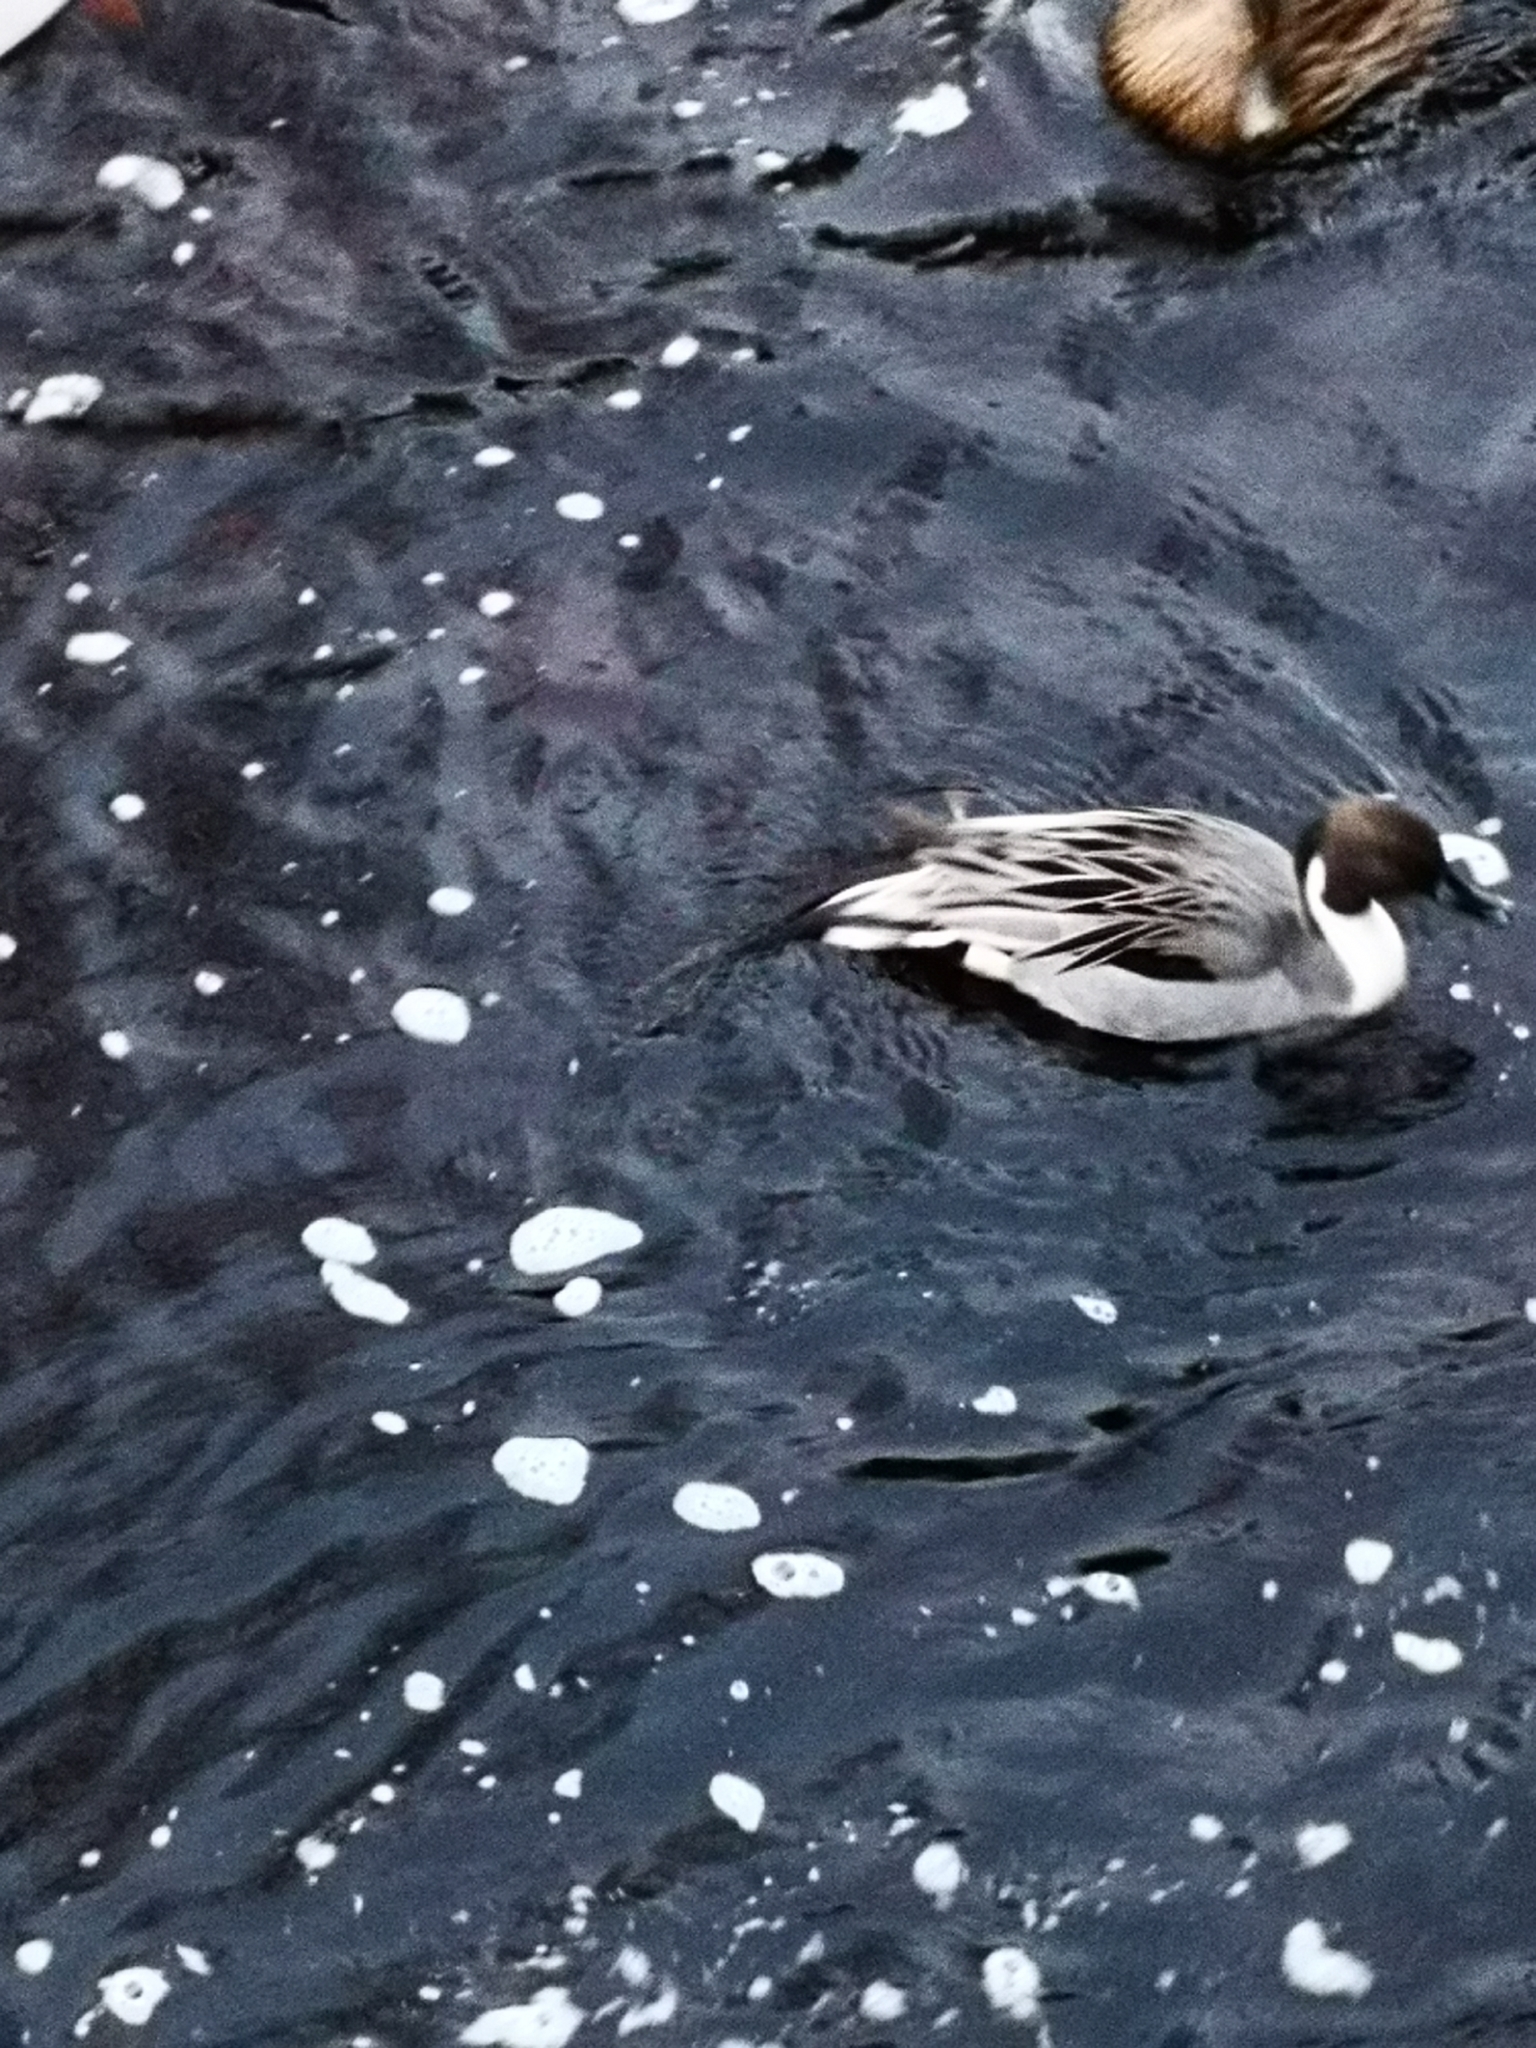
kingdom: Animalia
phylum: Chordata
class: Aves
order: Anseriformes
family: Anatidae
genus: Anas
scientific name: Anas acuta
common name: Northern pintail
